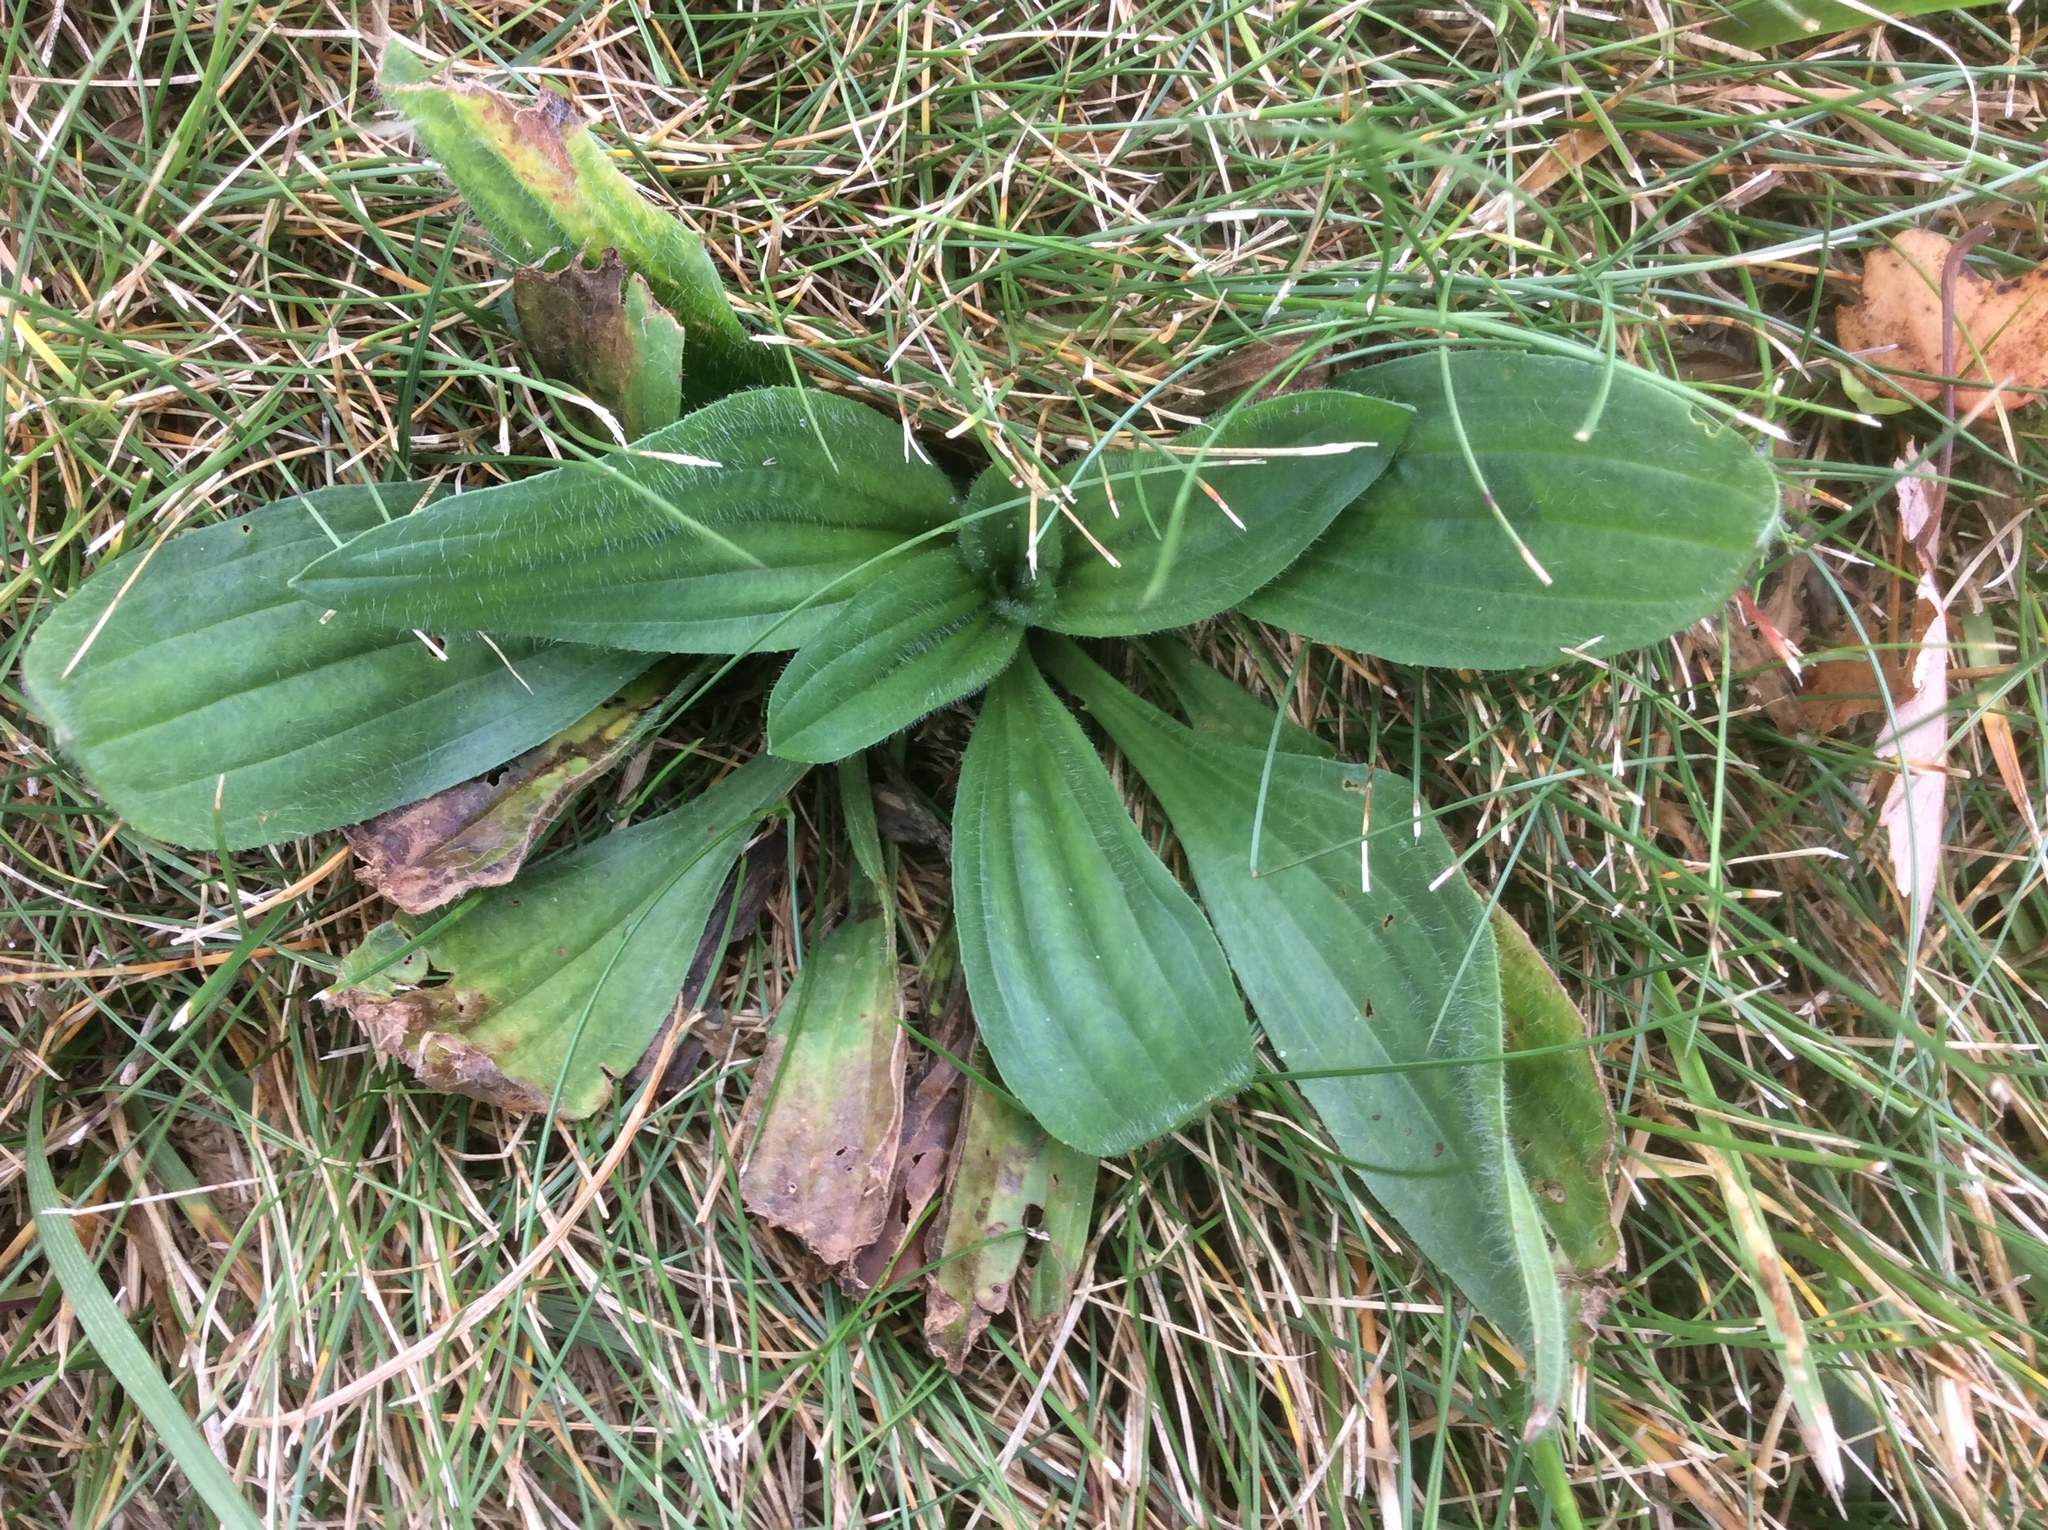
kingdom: Plantae
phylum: Tracheophyta
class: Magnoliopsida
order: Lamiales
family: Plantaginaceae
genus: Plantago
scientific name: Plantago lanceolata
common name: Ribwort plantain
